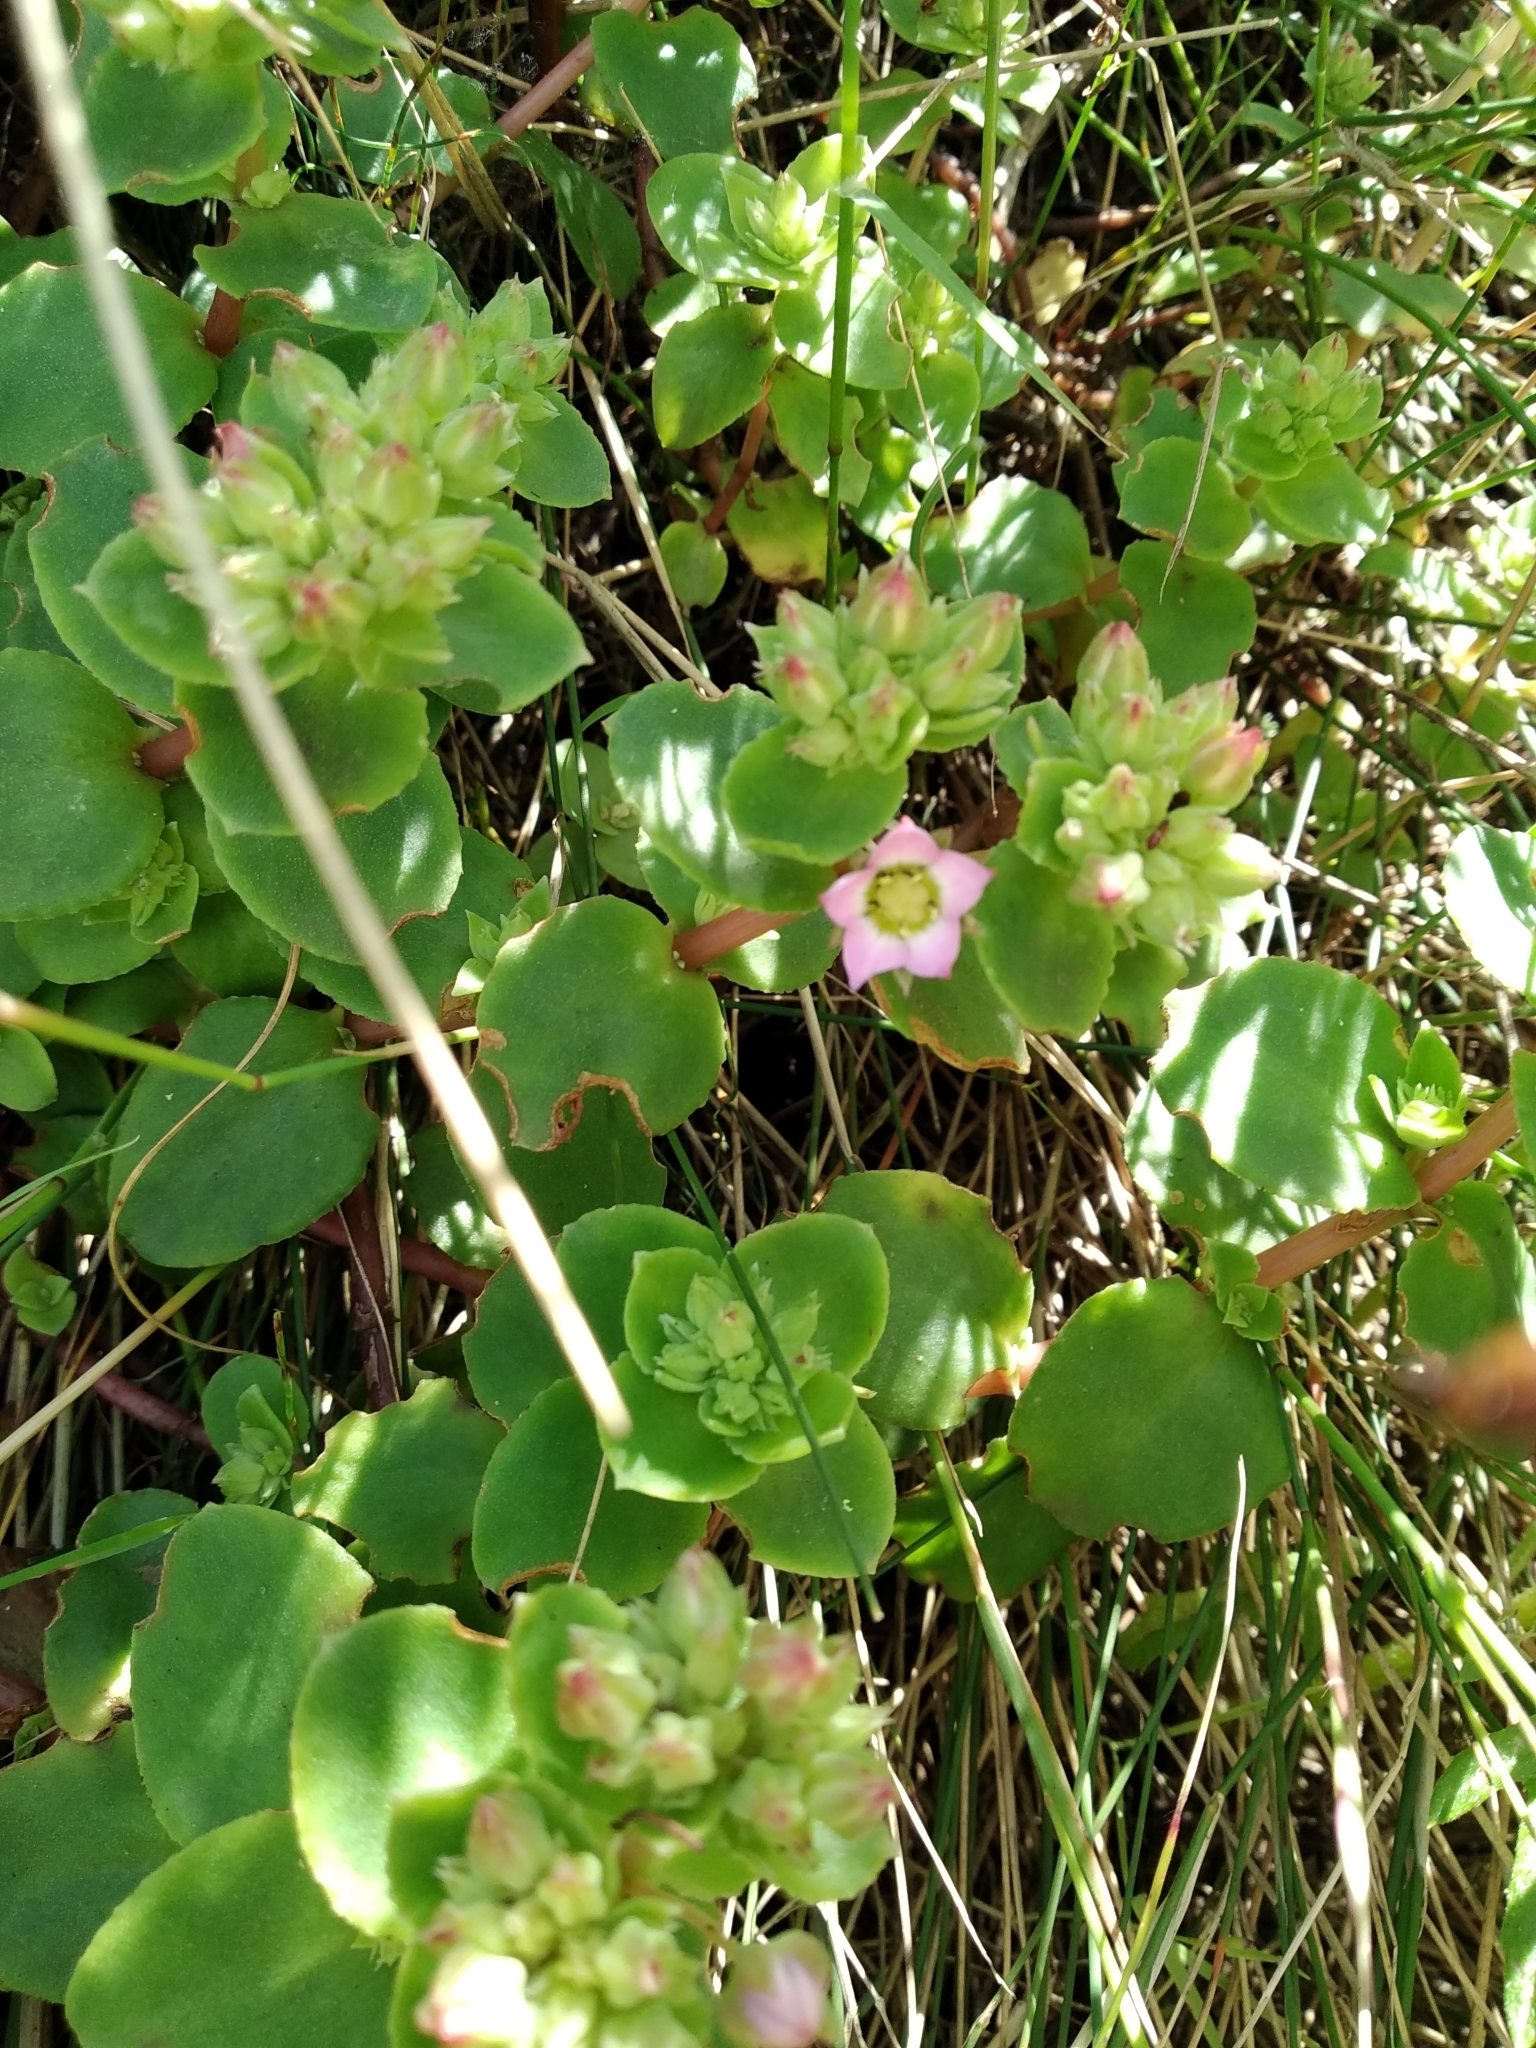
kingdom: Plantae
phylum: Tracheophyta
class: Magnoliopsida
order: Saxifragales
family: Crassulaceae
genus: Crassula
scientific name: Crassula pellucida
